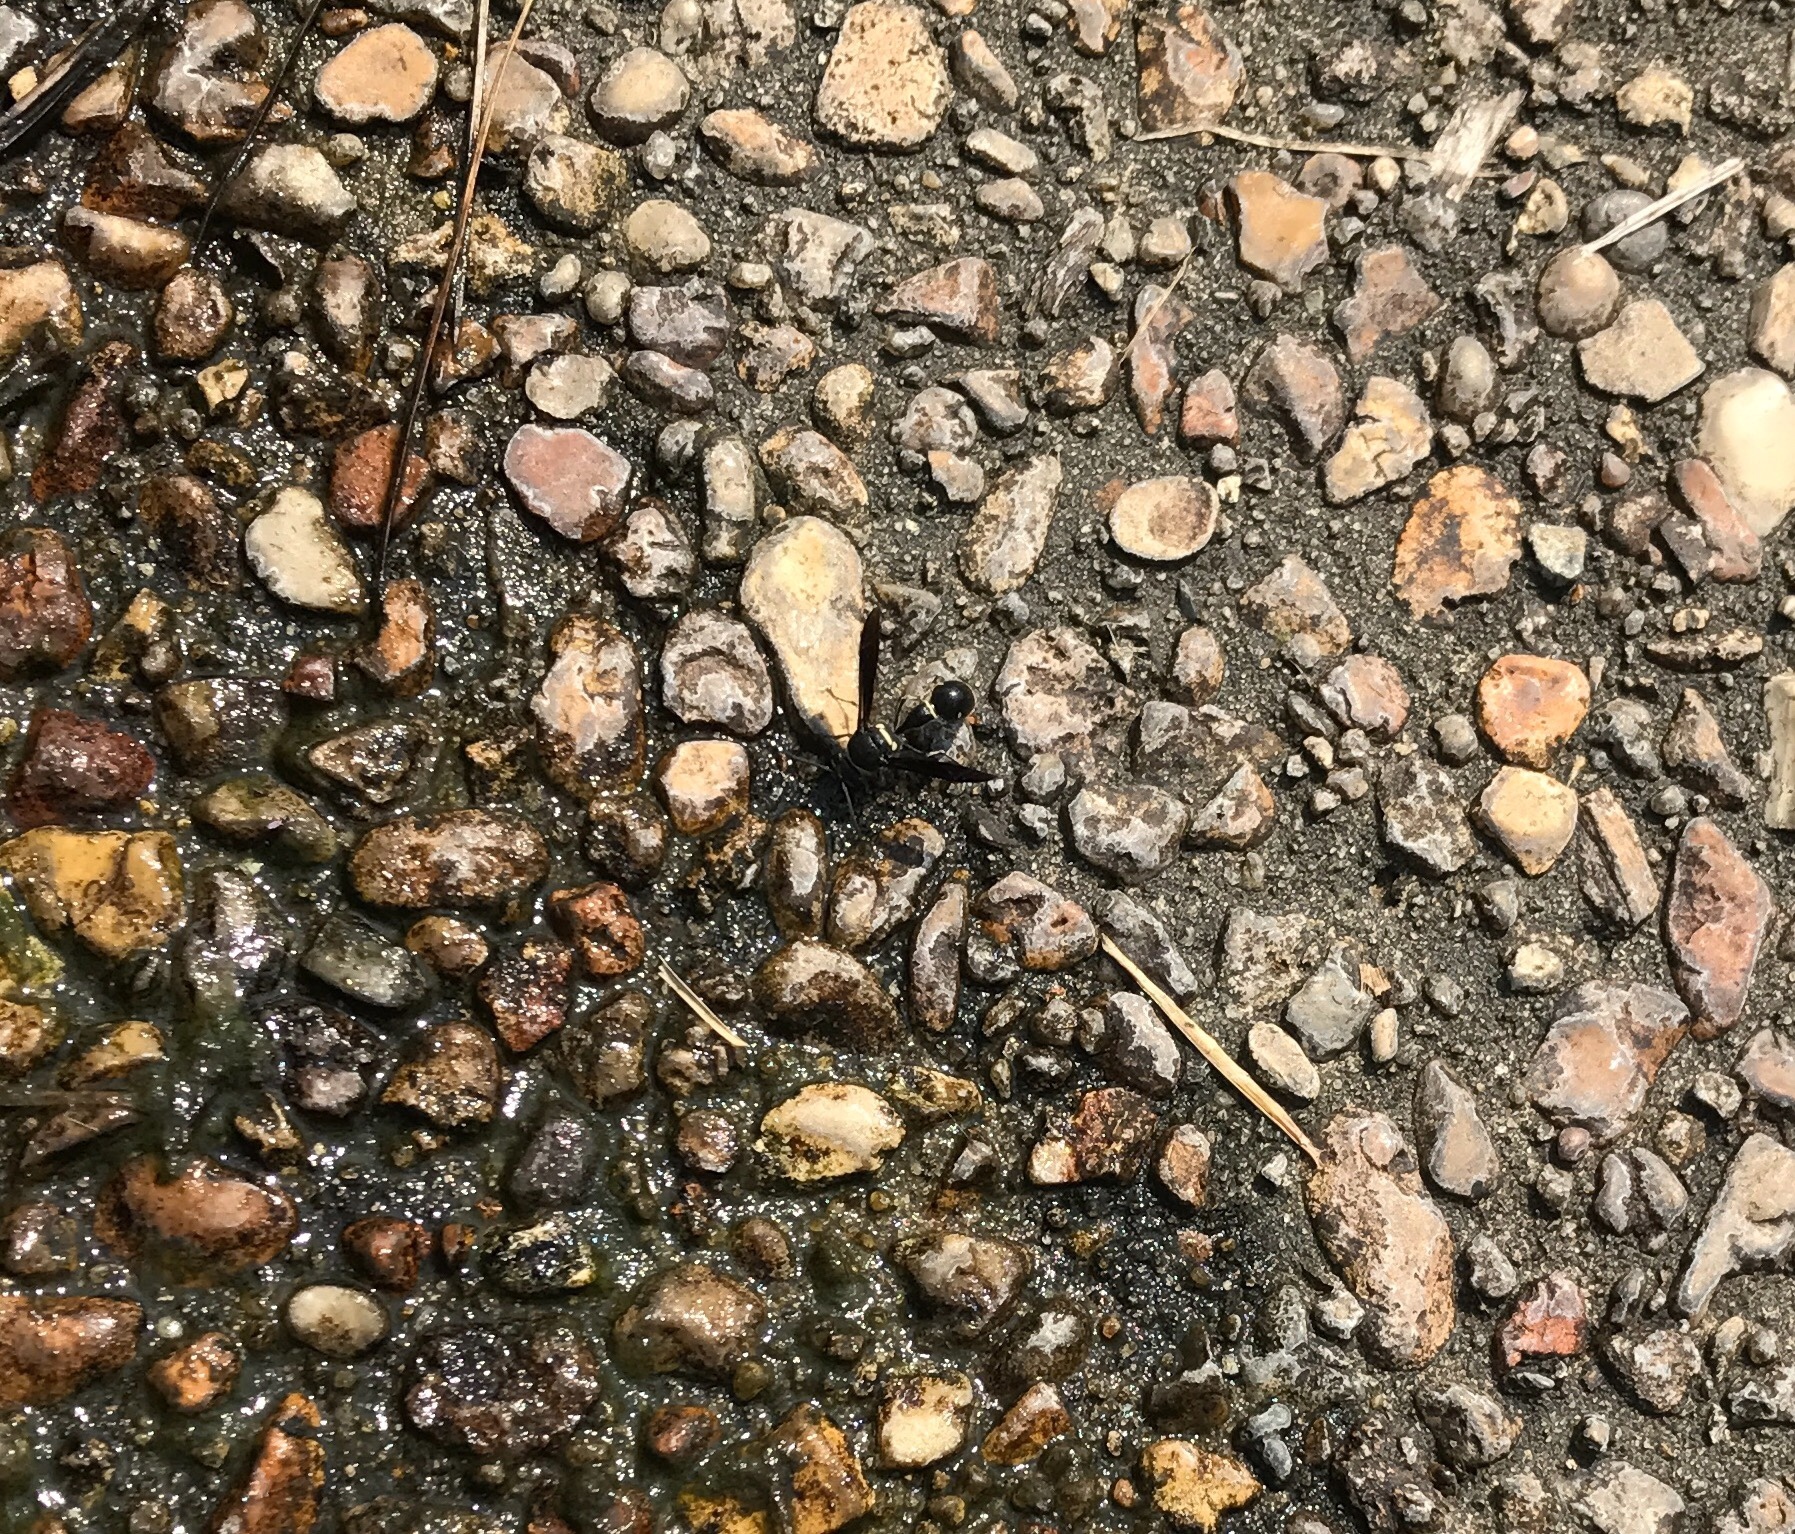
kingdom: Animalia
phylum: Arthropoda
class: Insecta
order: Hymenoptera
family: Vespidae
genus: Eumenes
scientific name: Eumenes fraternus
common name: Fraternal potter wasp
